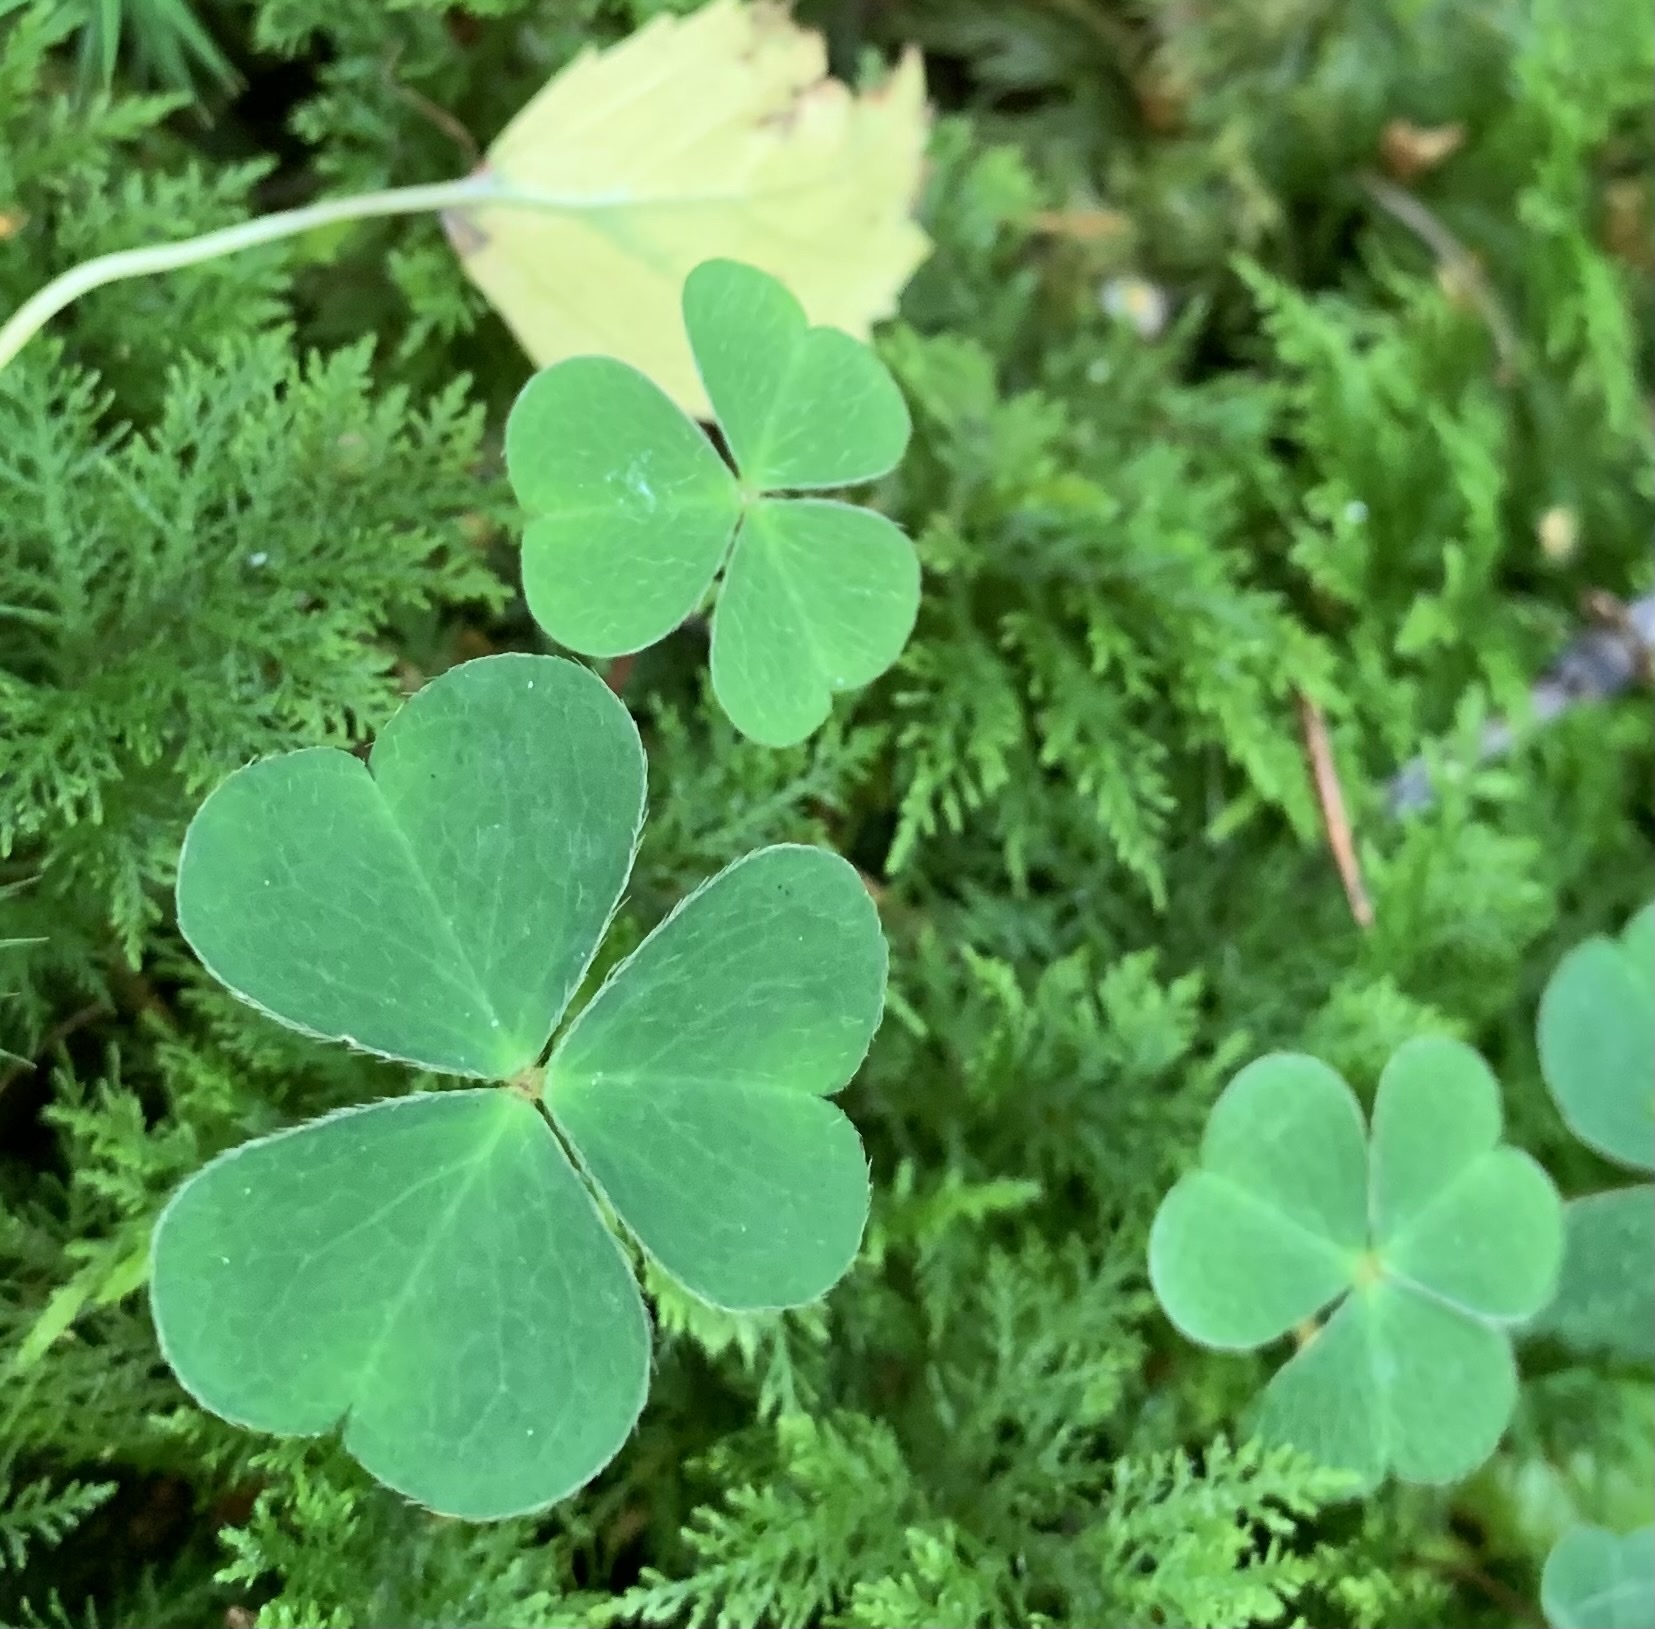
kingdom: Plantae
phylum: Tracheophyta
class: Magnoliopsida
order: Oxalidales
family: Oxalidaceae
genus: Oxalis
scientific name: Oxalis acetosella
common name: Wood-sorrel
